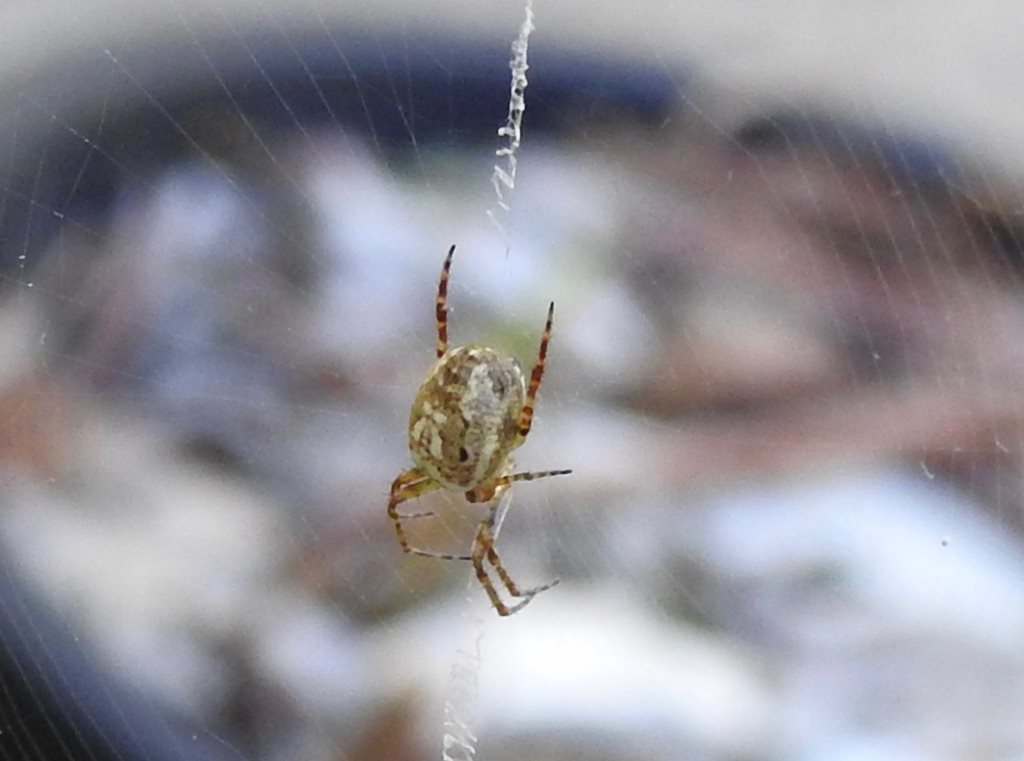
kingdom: Animalia
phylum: Arthropoda
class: Arachnida
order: Araneae
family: Araneidae
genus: Plebs
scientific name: Plebs eburnus
